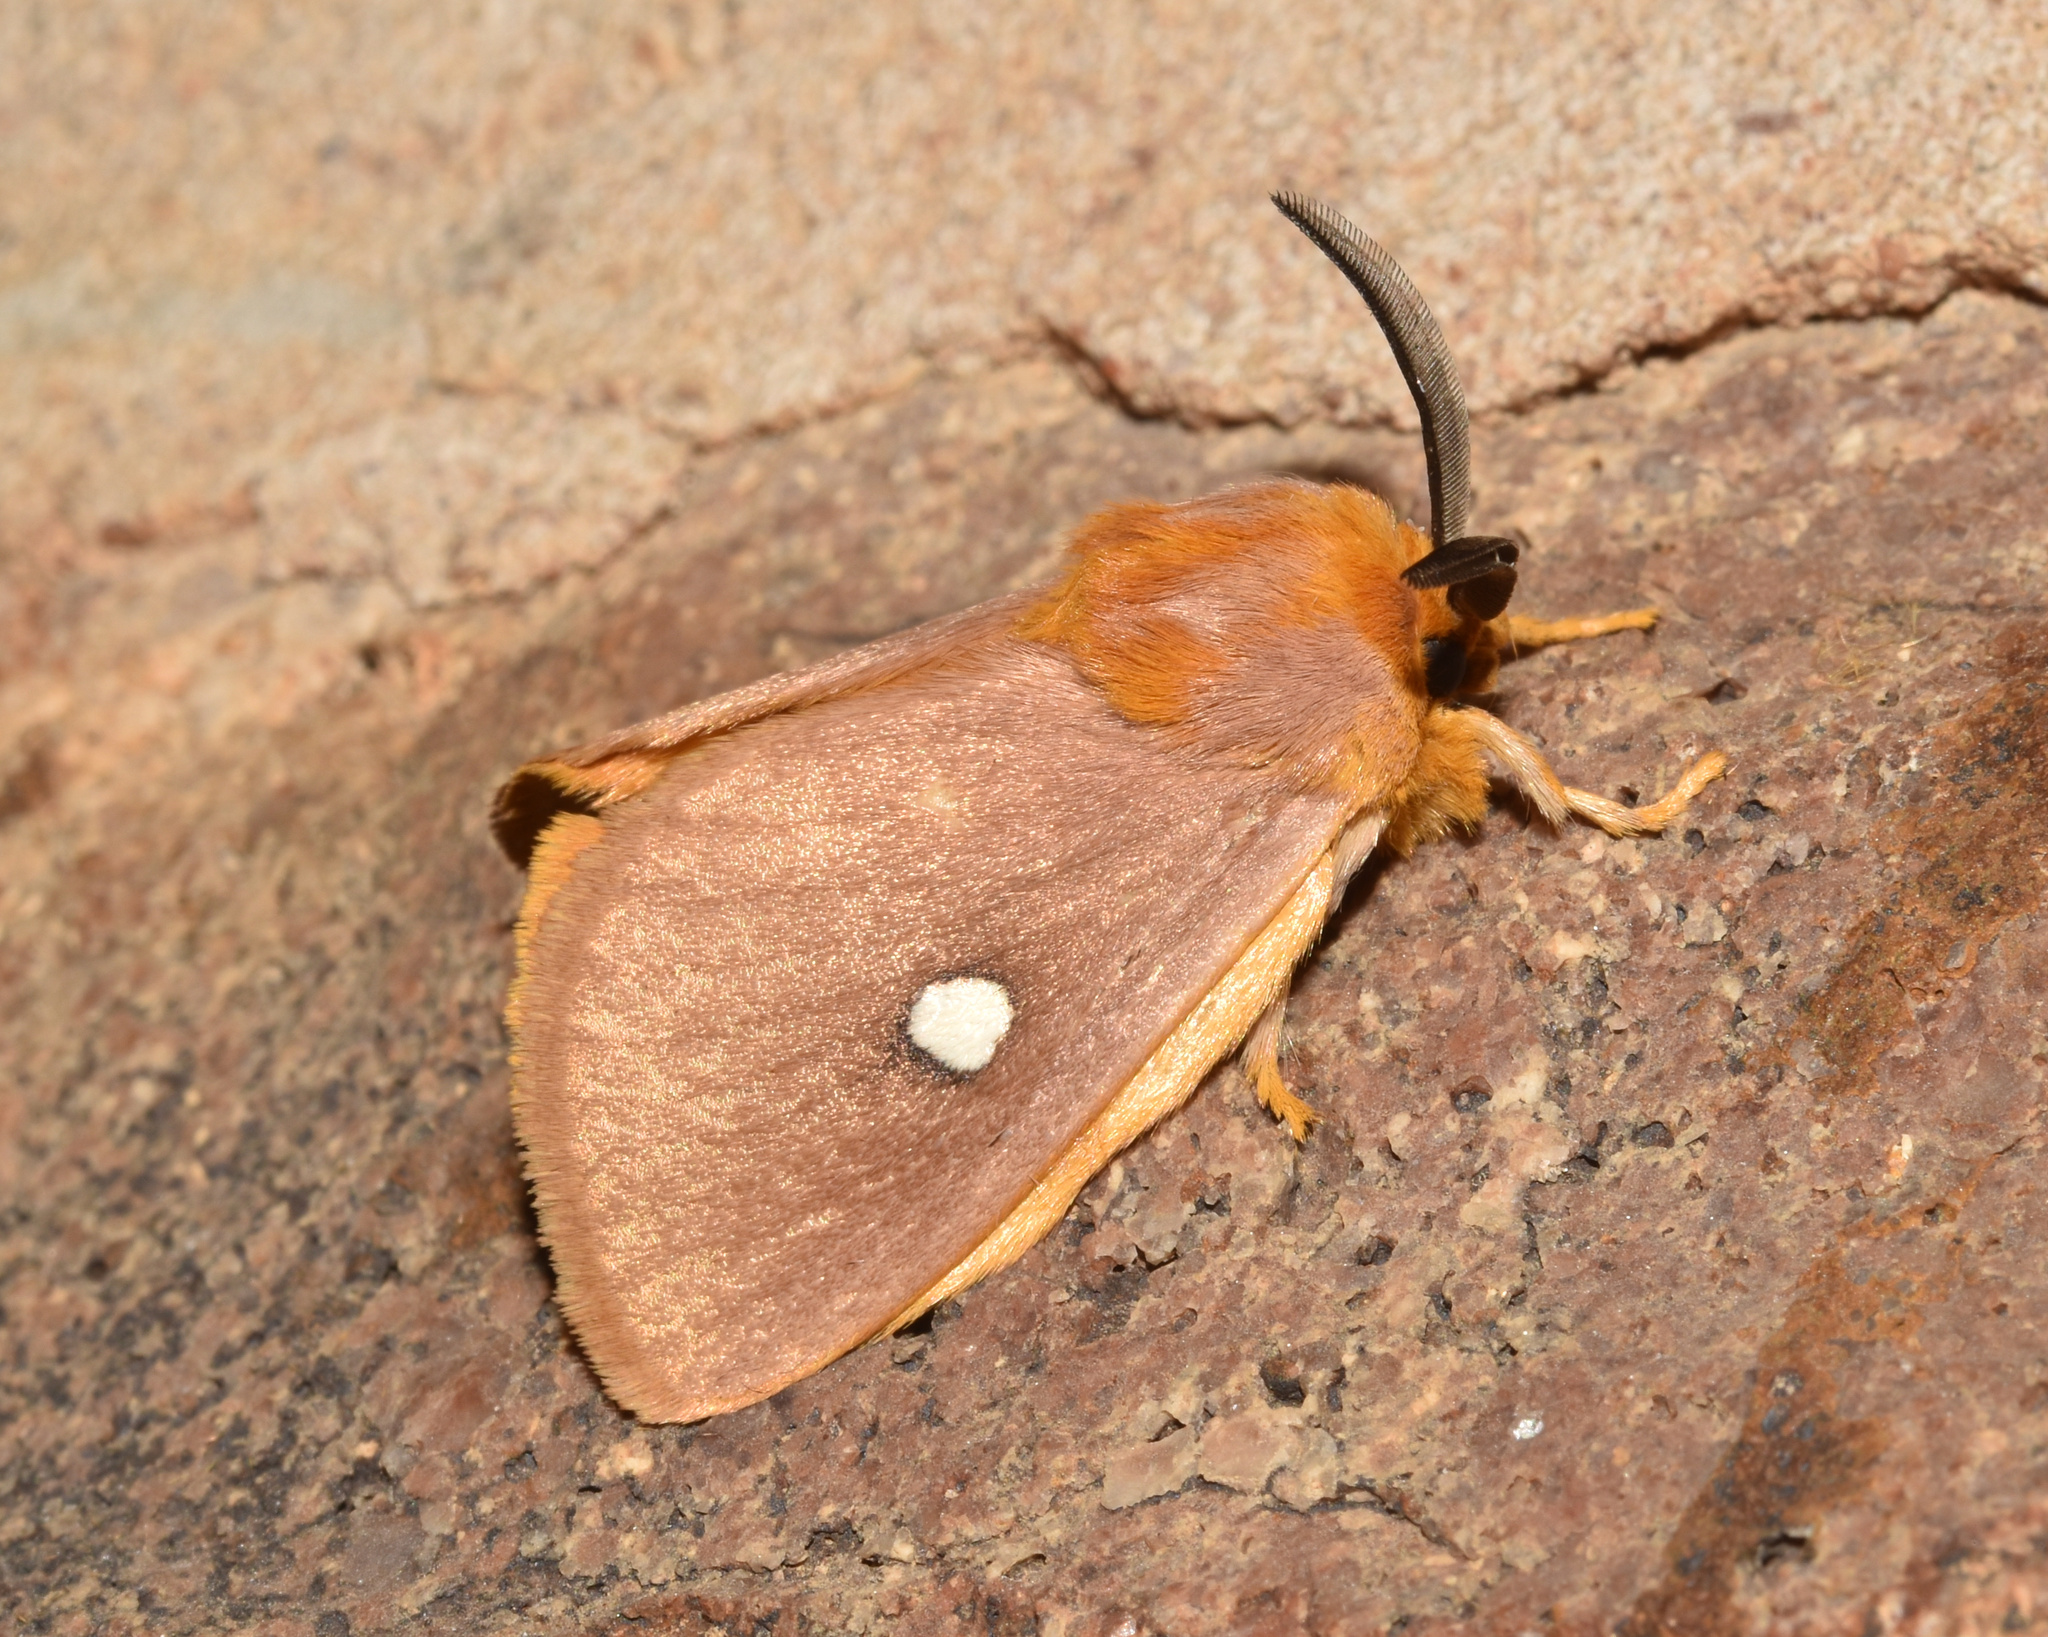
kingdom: Animalia
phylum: Arthropoda
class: Insecta
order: Lepidoptera
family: Limacodidae
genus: Chrysopoloma
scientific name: Chrysopoloma isabellina
